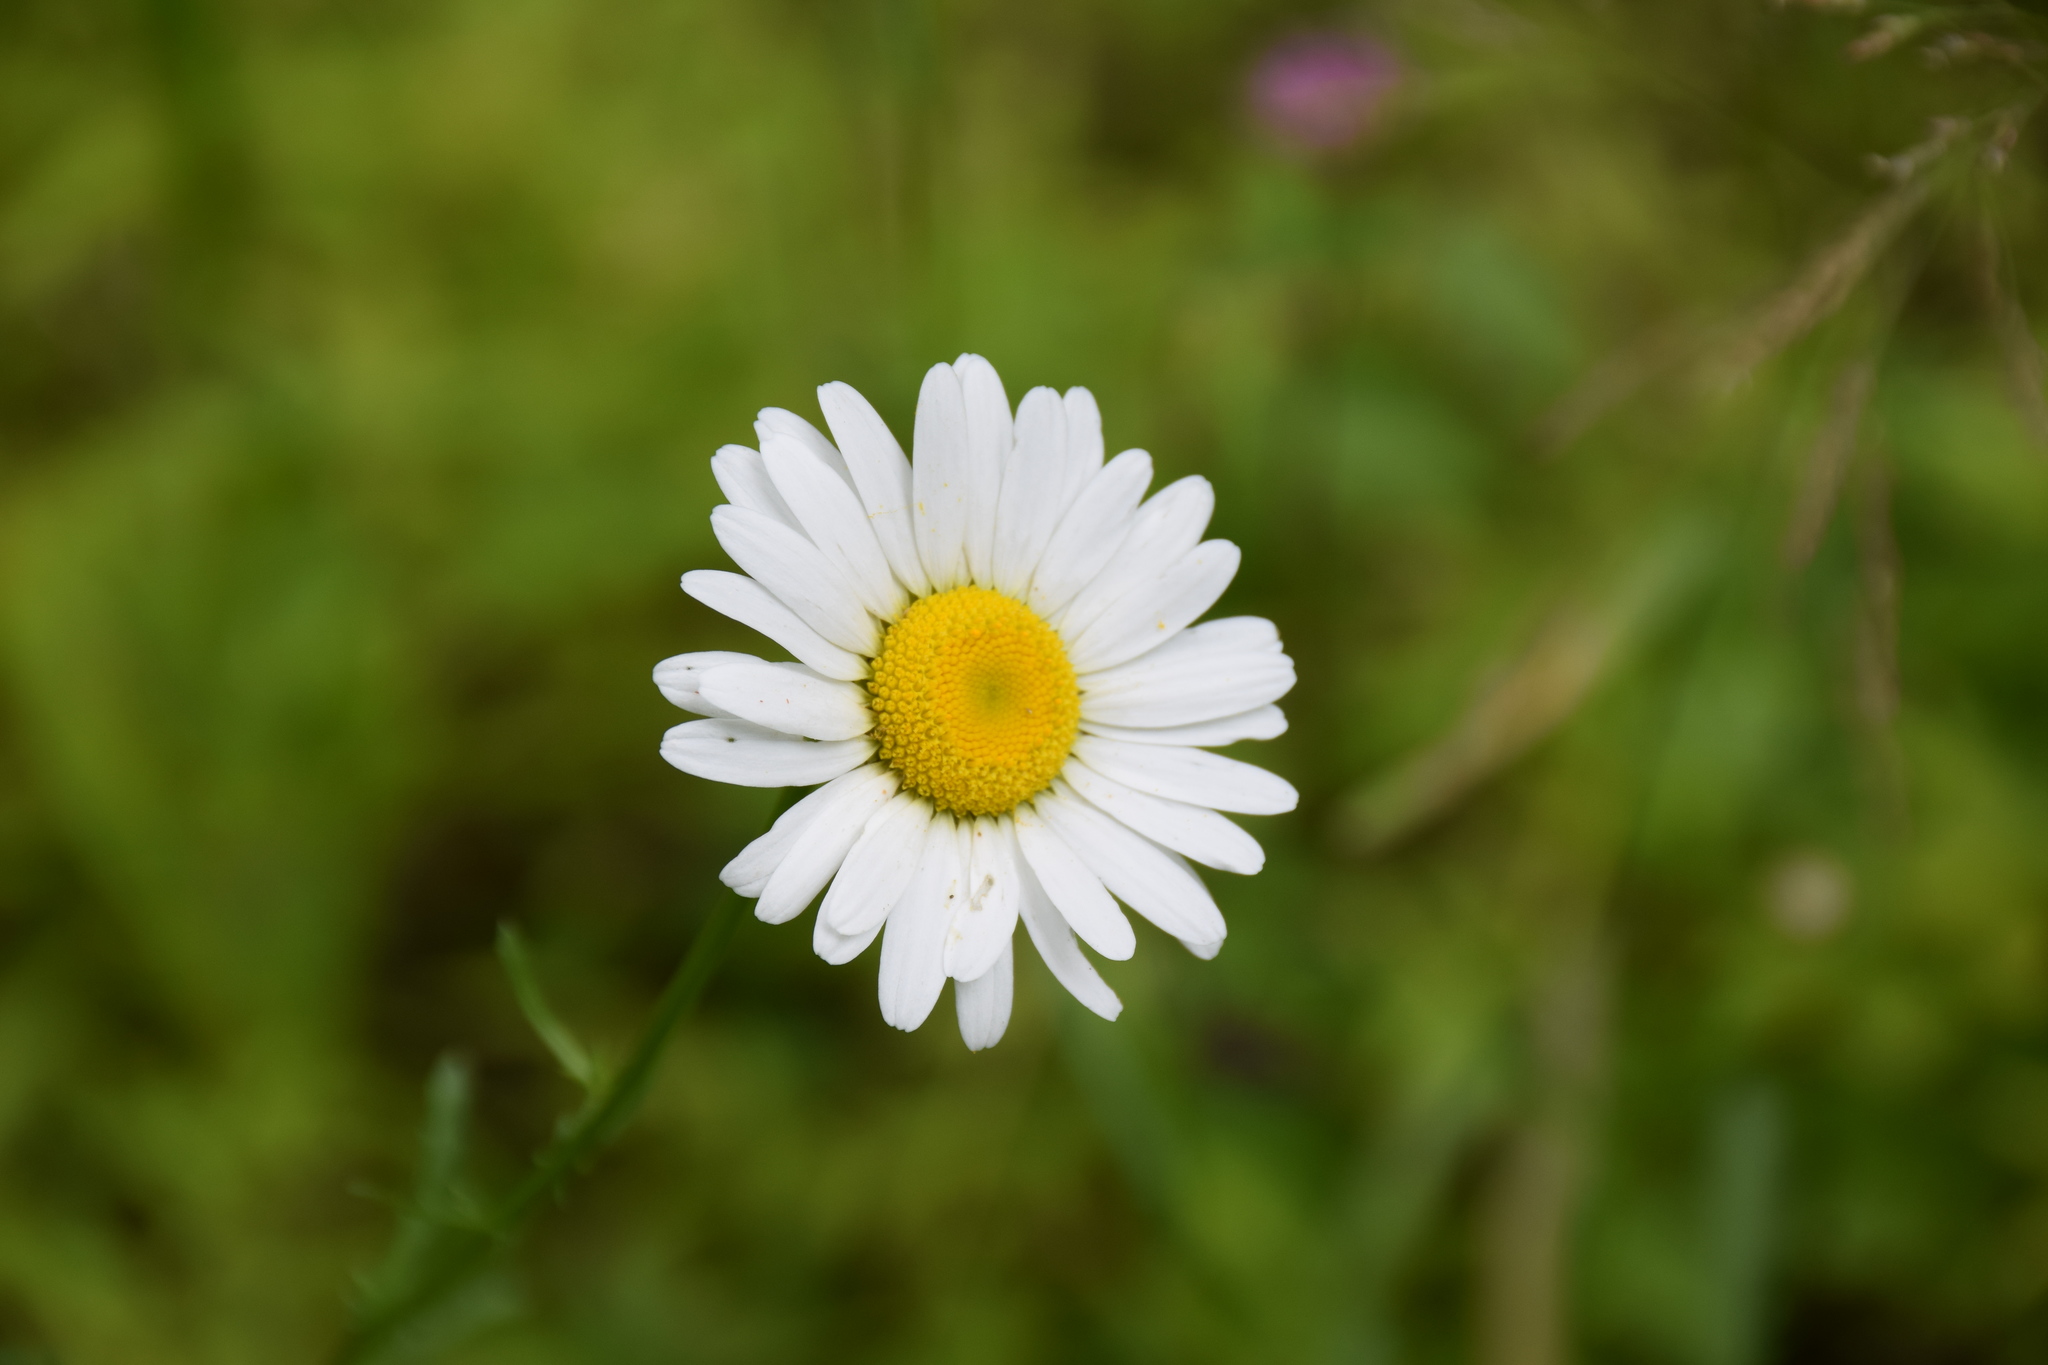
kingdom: Plantae
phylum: Tracheophyta
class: Magnoliopsida
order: Asterales
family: Asteraceae
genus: Leucanthemum
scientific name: Leucanthemum vulgare
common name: Oxeye daisy
